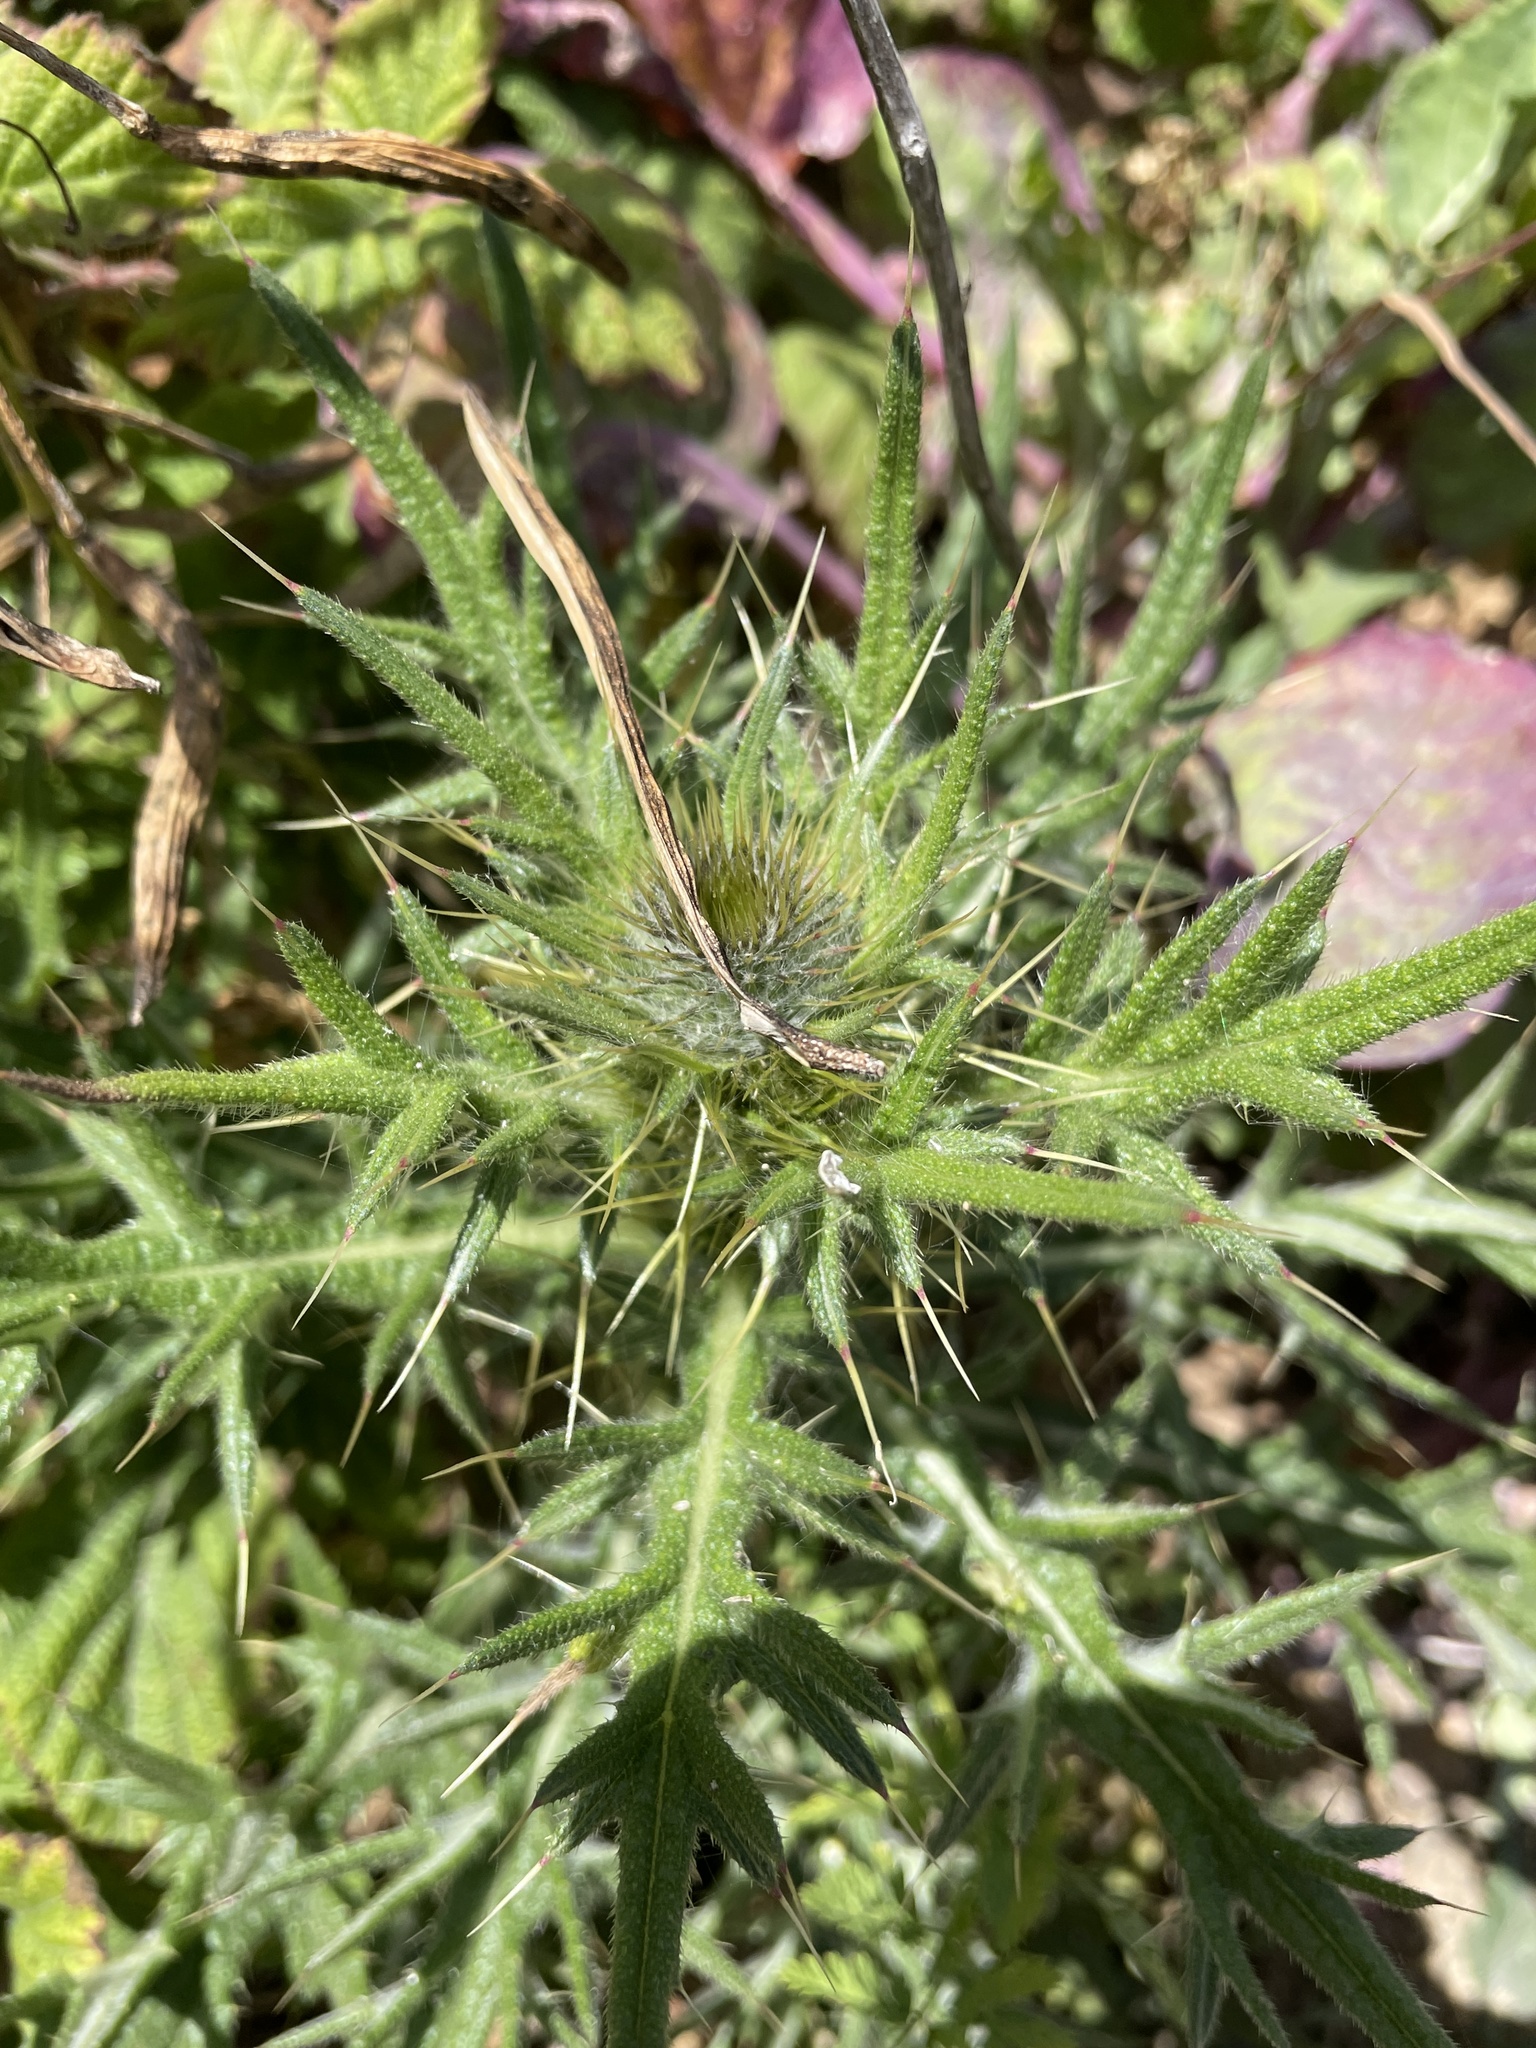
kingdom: Plantae
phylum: Tracheophyta
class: Magnoliopsida
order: Asterales
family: Asteraceae
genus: Cirsium
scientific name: Cirsium vulgare
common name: Bull thistle
